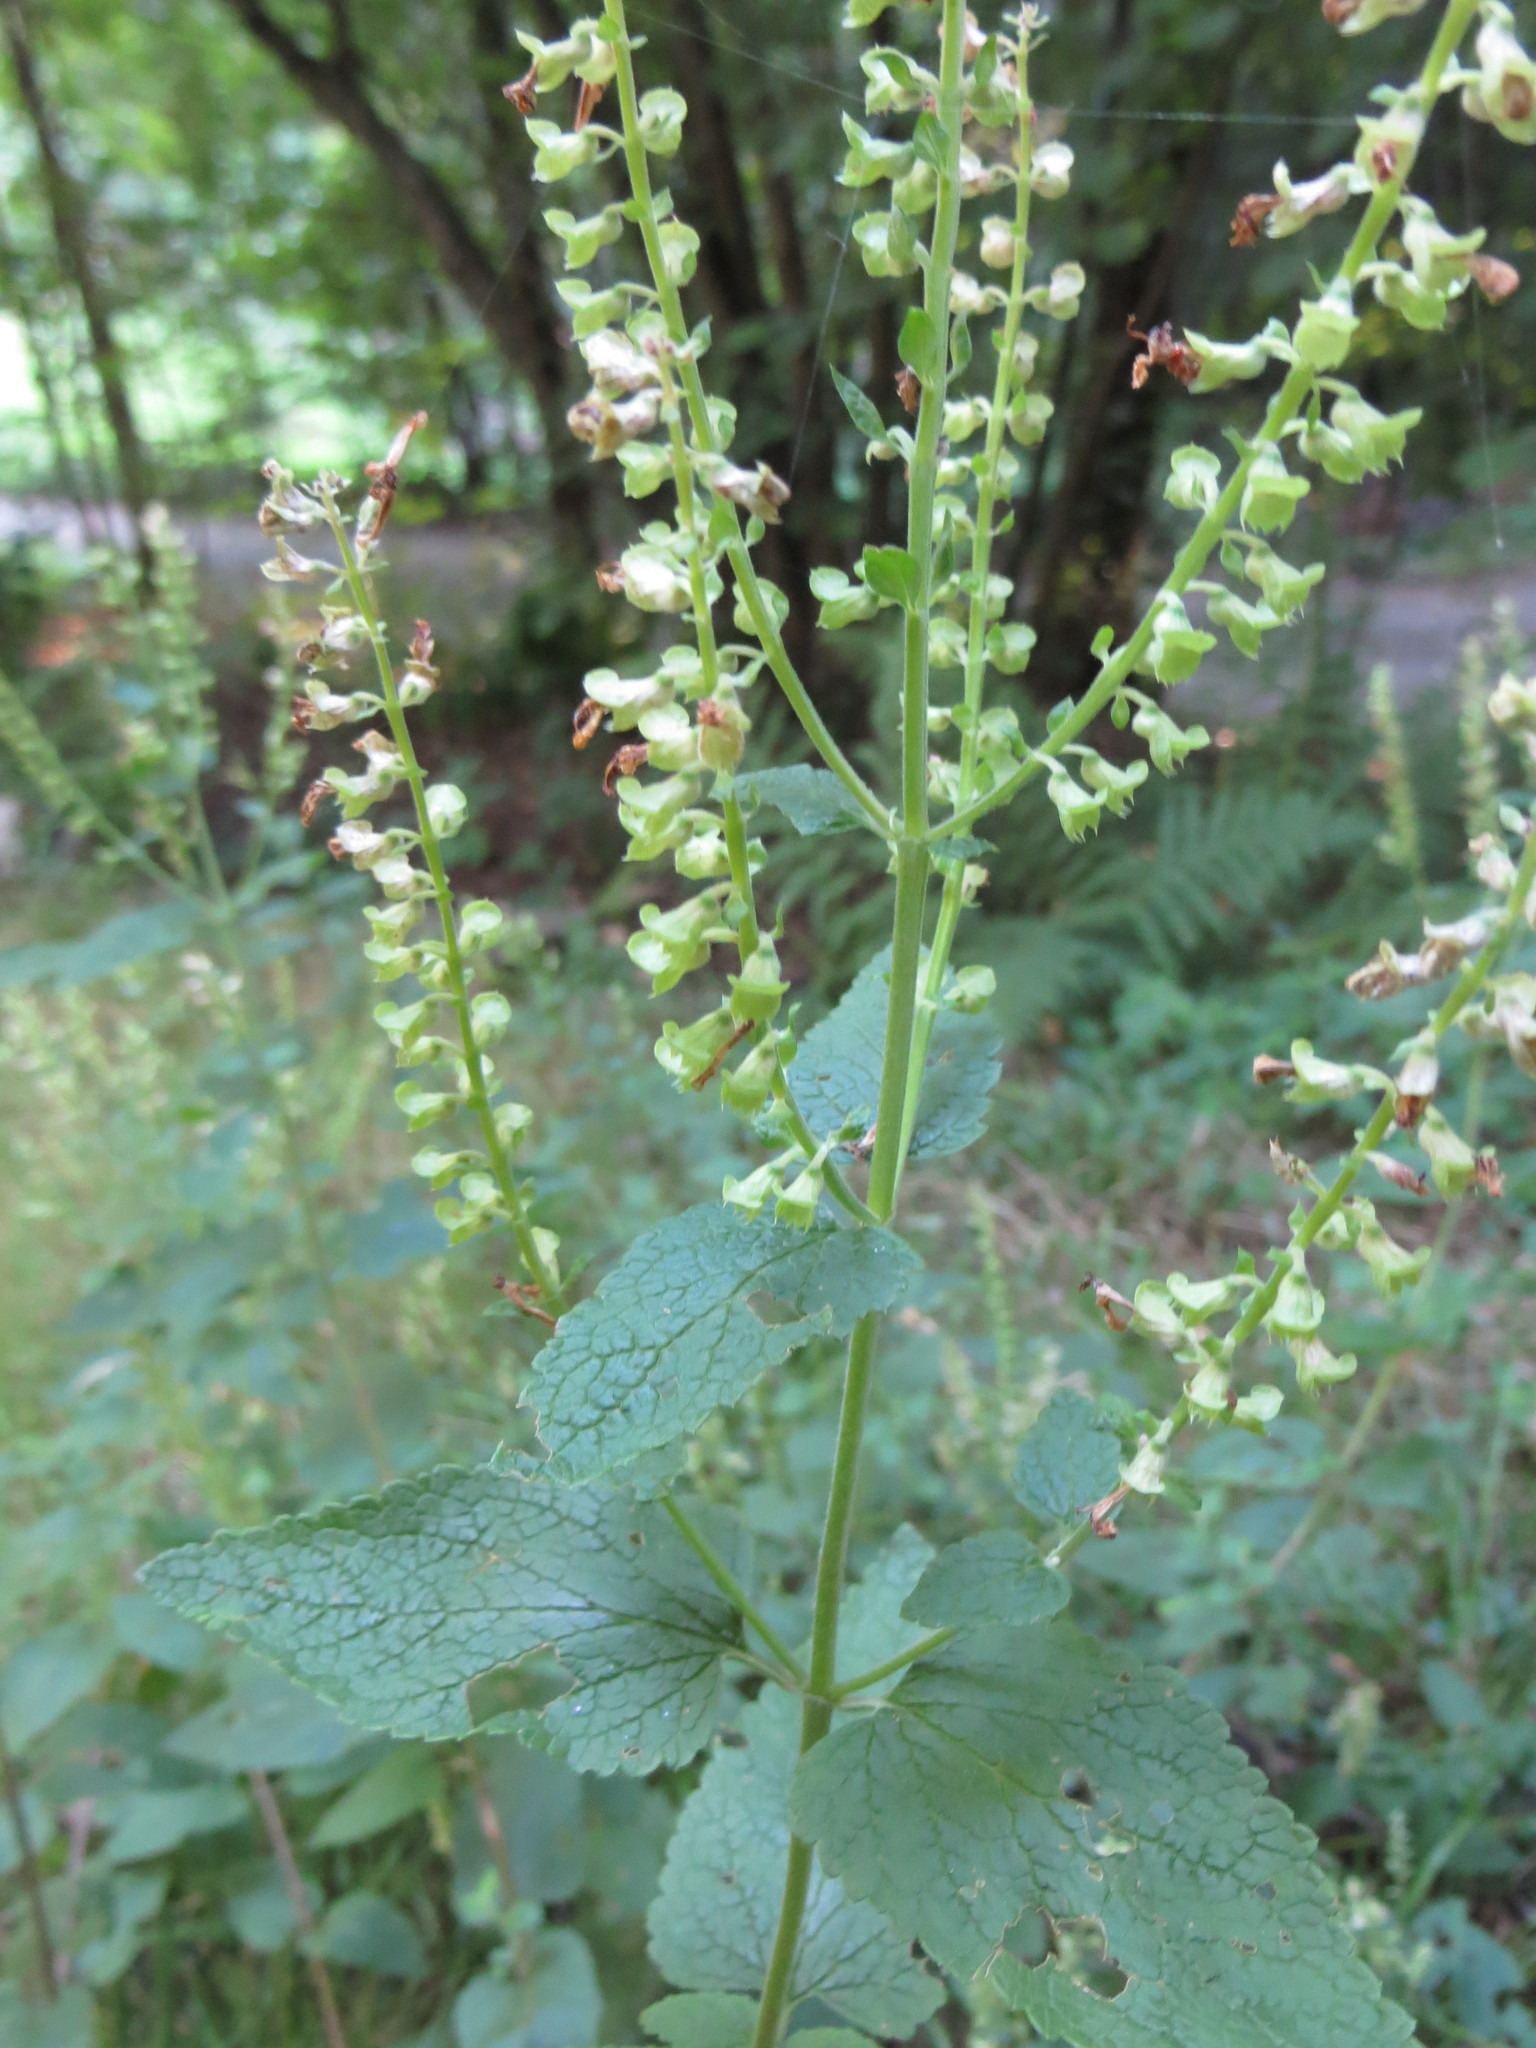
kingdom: Plantae
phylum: Tracheophyta
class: Magnoliopsida
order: Lamiales
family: Lamiaceae
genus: Teucrium
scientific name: Teucrium scorodonia
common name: Woodland germander
